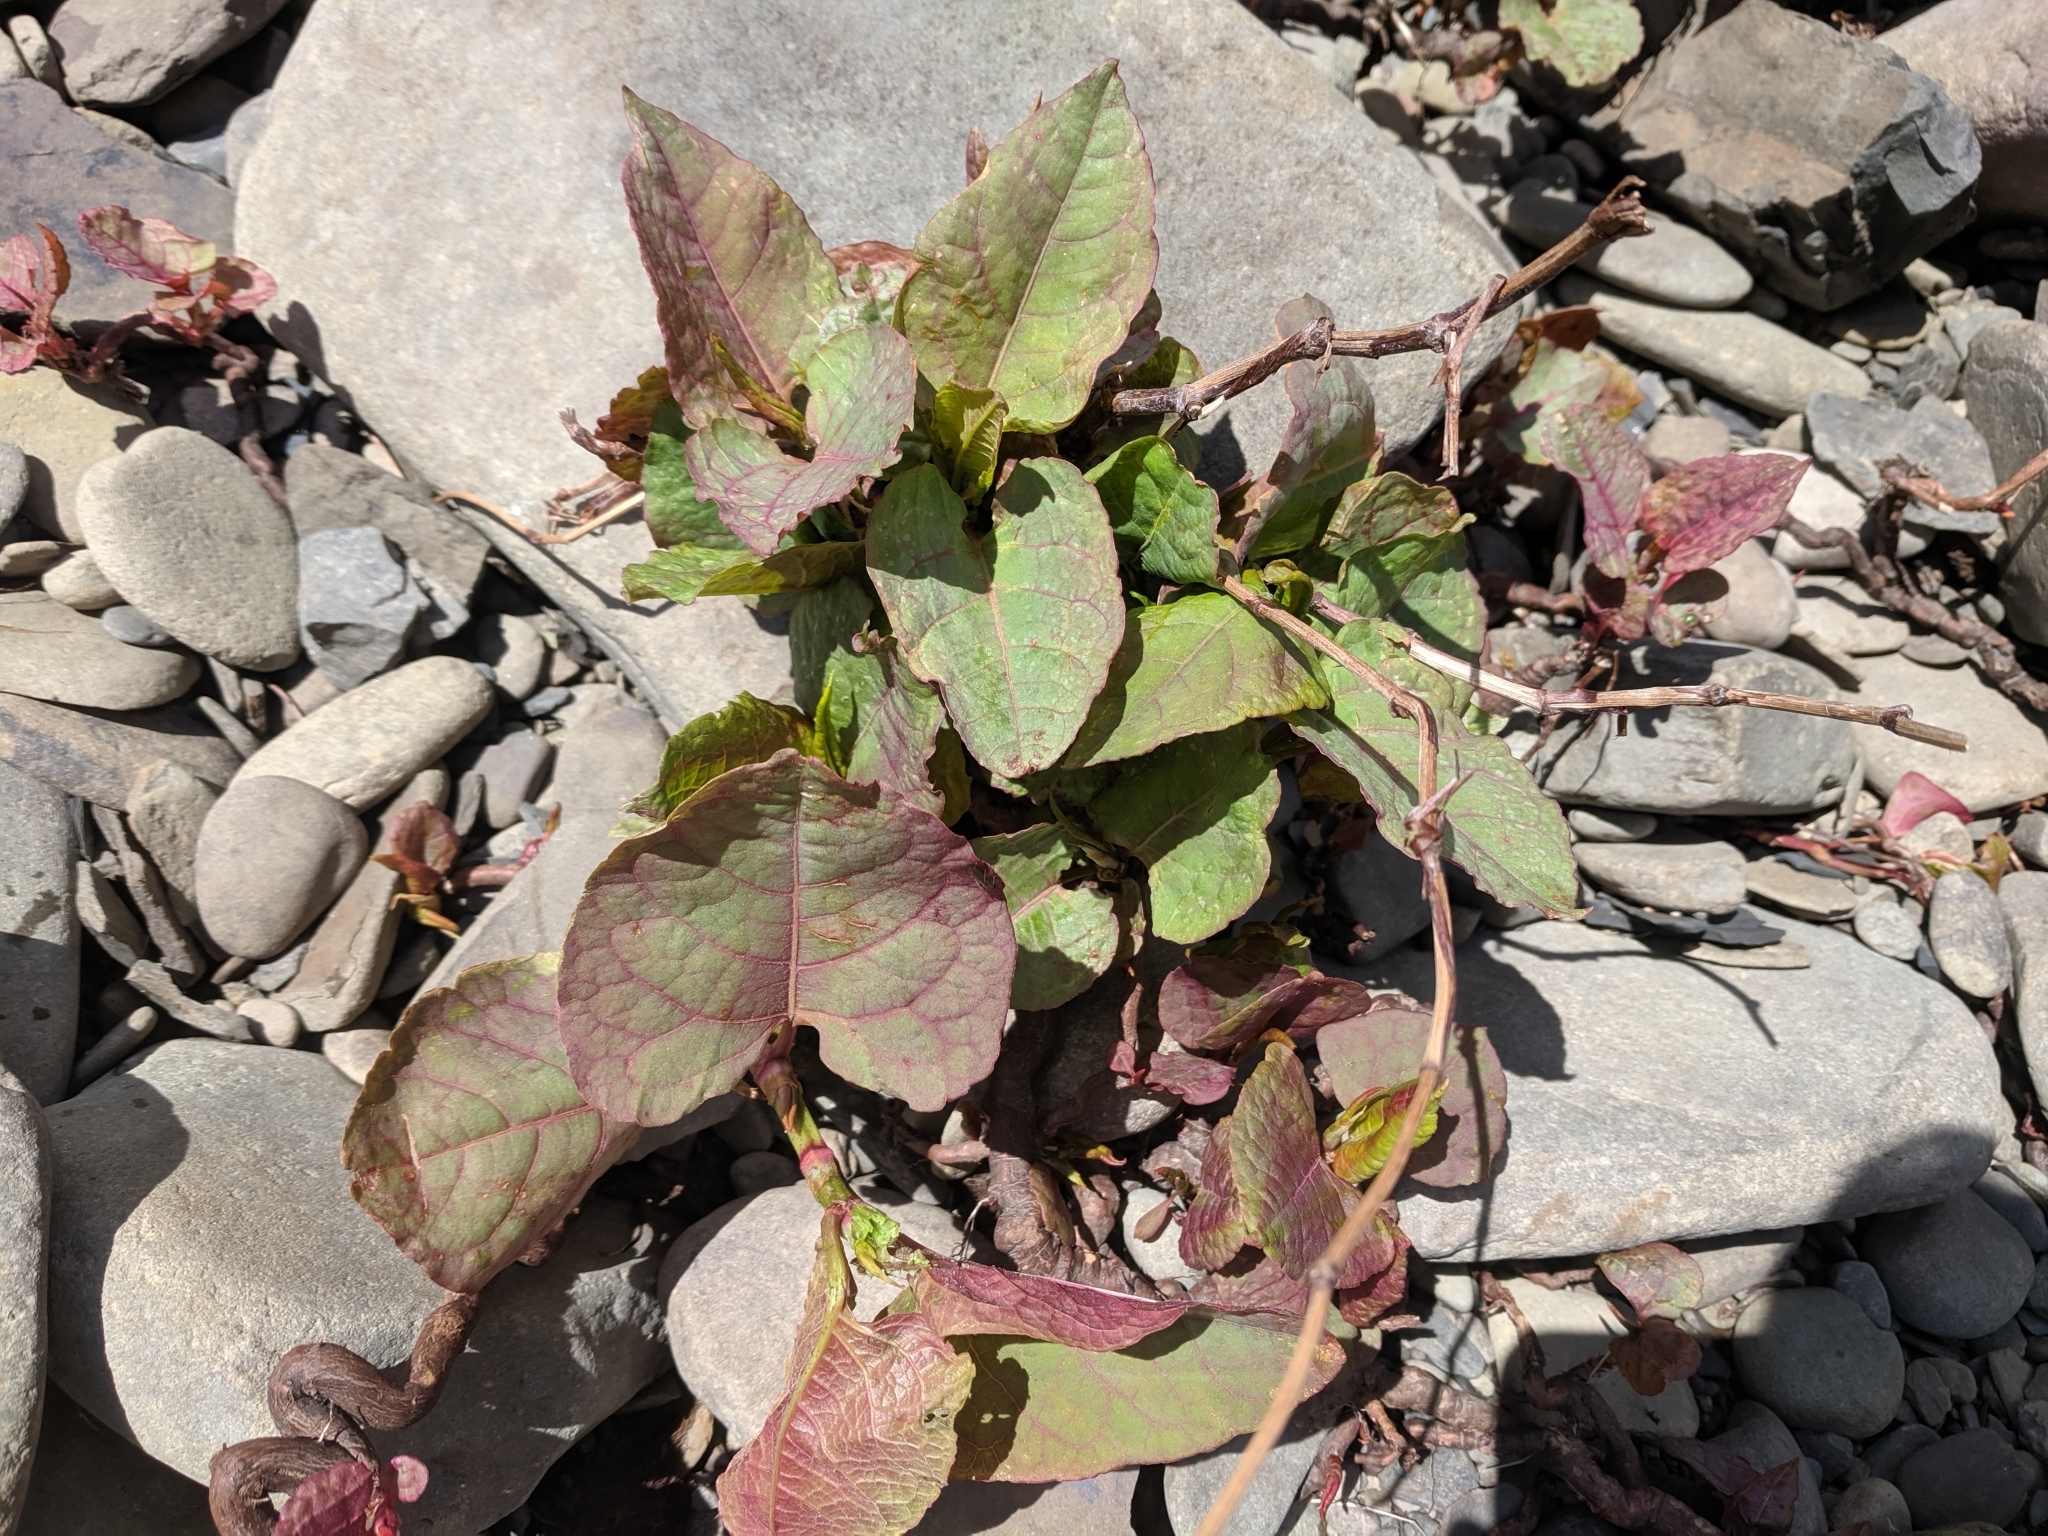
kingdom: Plantae
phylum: Tracheophyta
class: Magnoliopsida
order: Caryophyllales
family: Polygonaceae
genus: Reynoutria
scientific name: Reynoutria japonica
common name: Japanese knotweed
